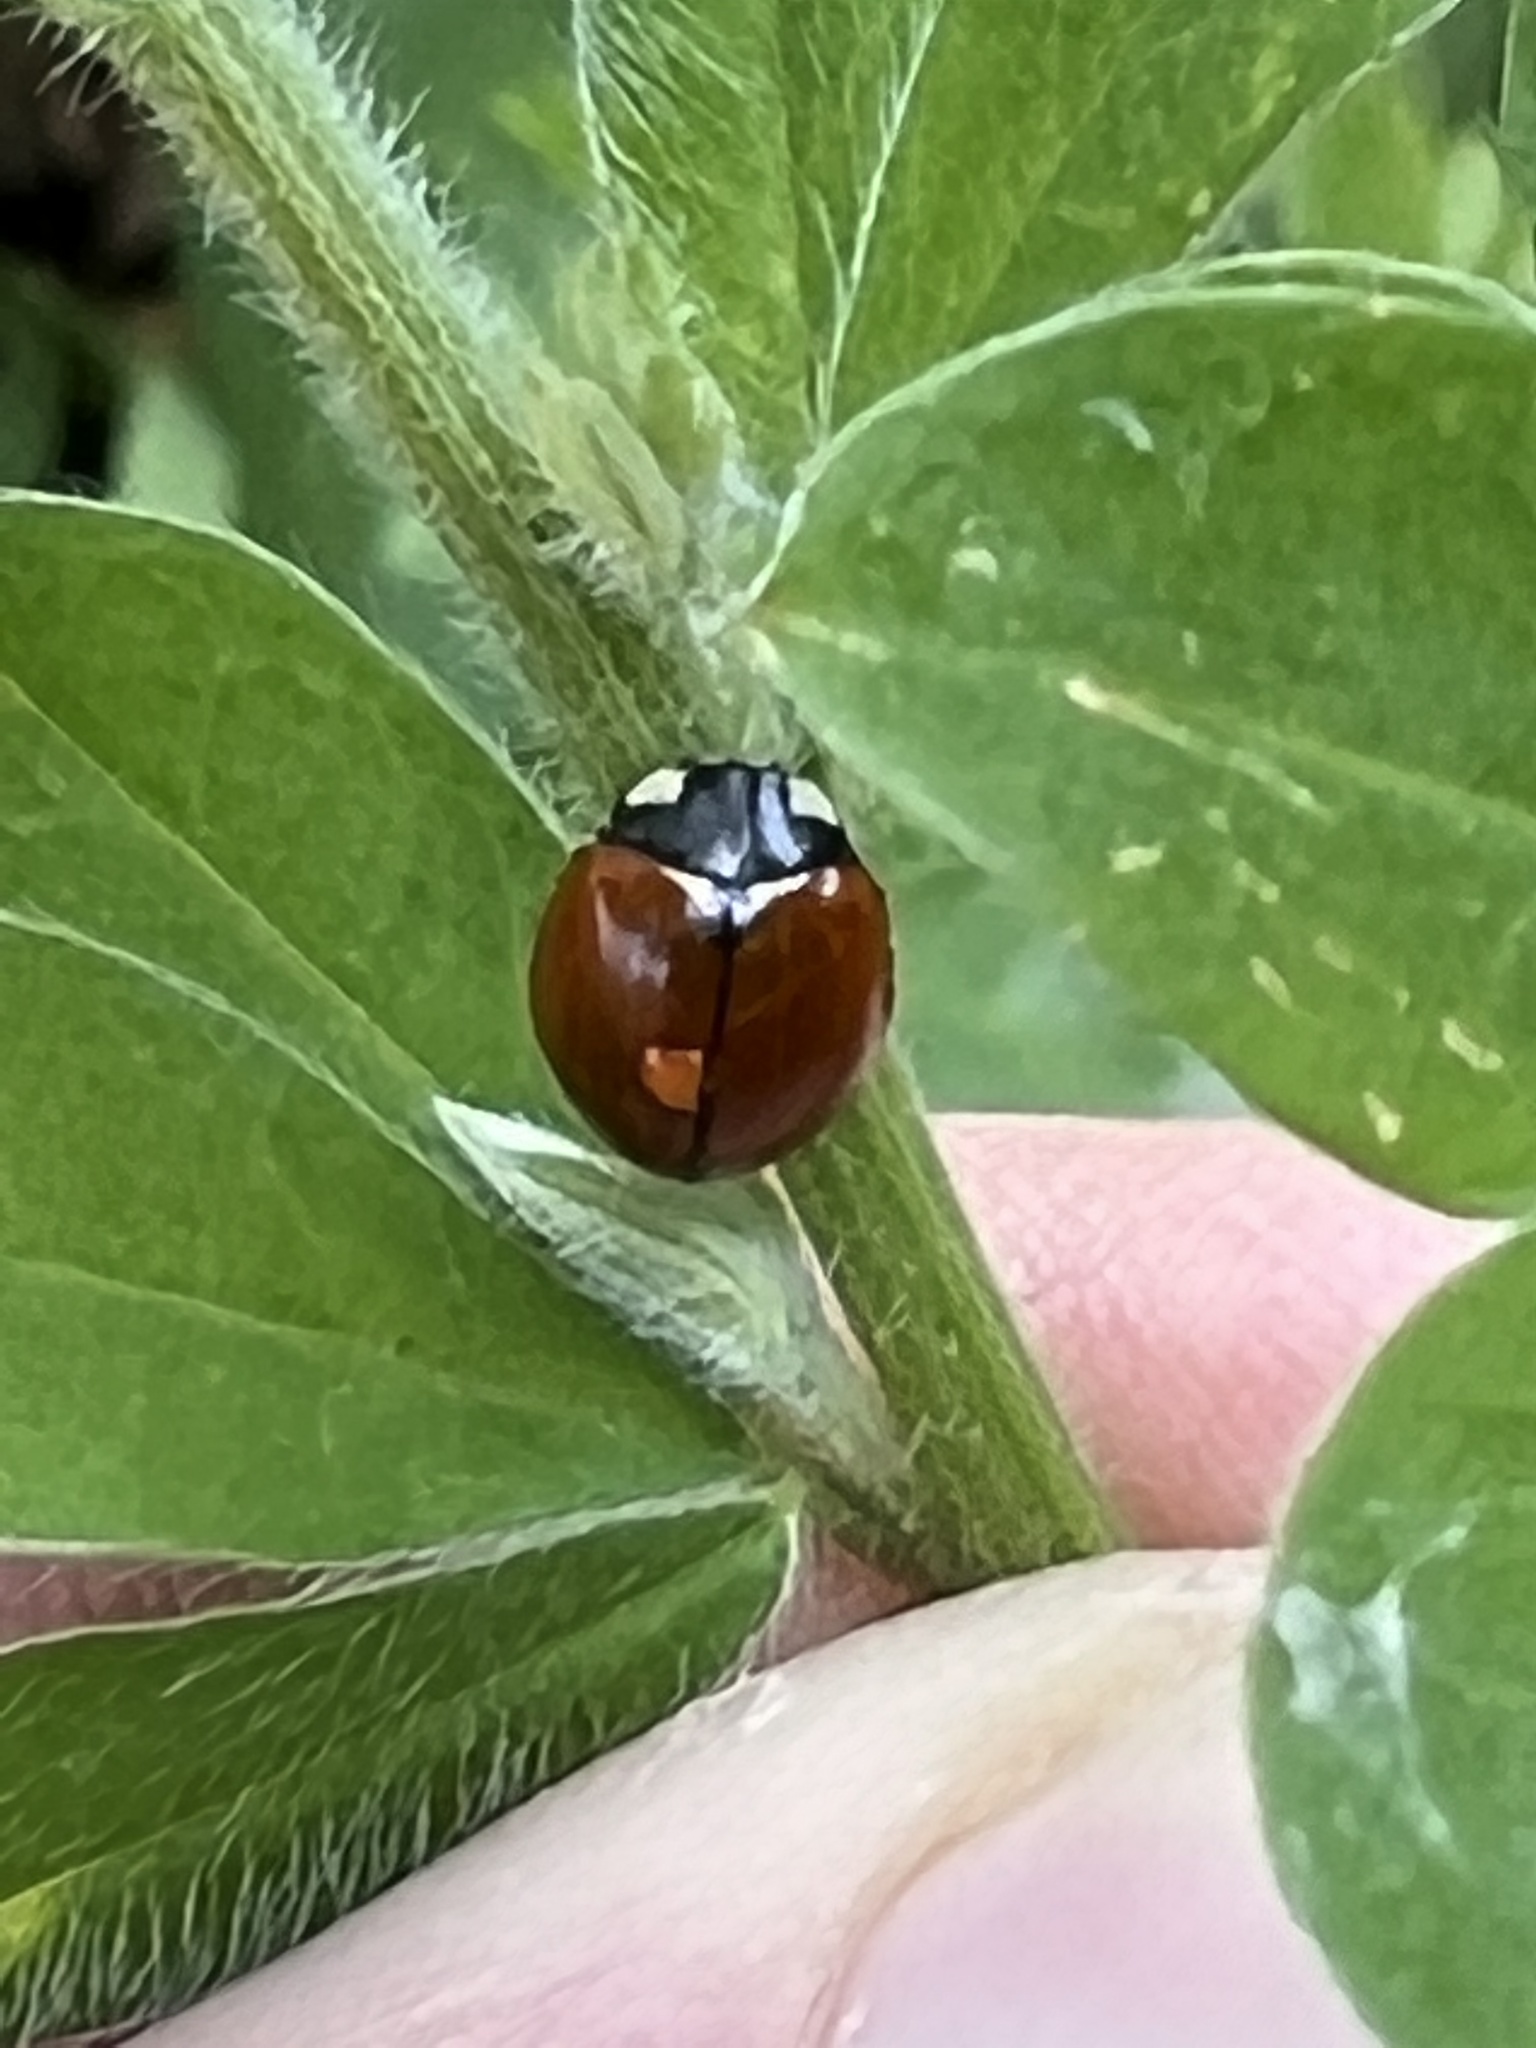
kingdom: Animalia
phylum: Arthropoda
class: Insecta
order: Coleoptera
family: Coccinellidae
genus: Coccinella
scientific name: Coccinella californica
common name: Lady beetle
